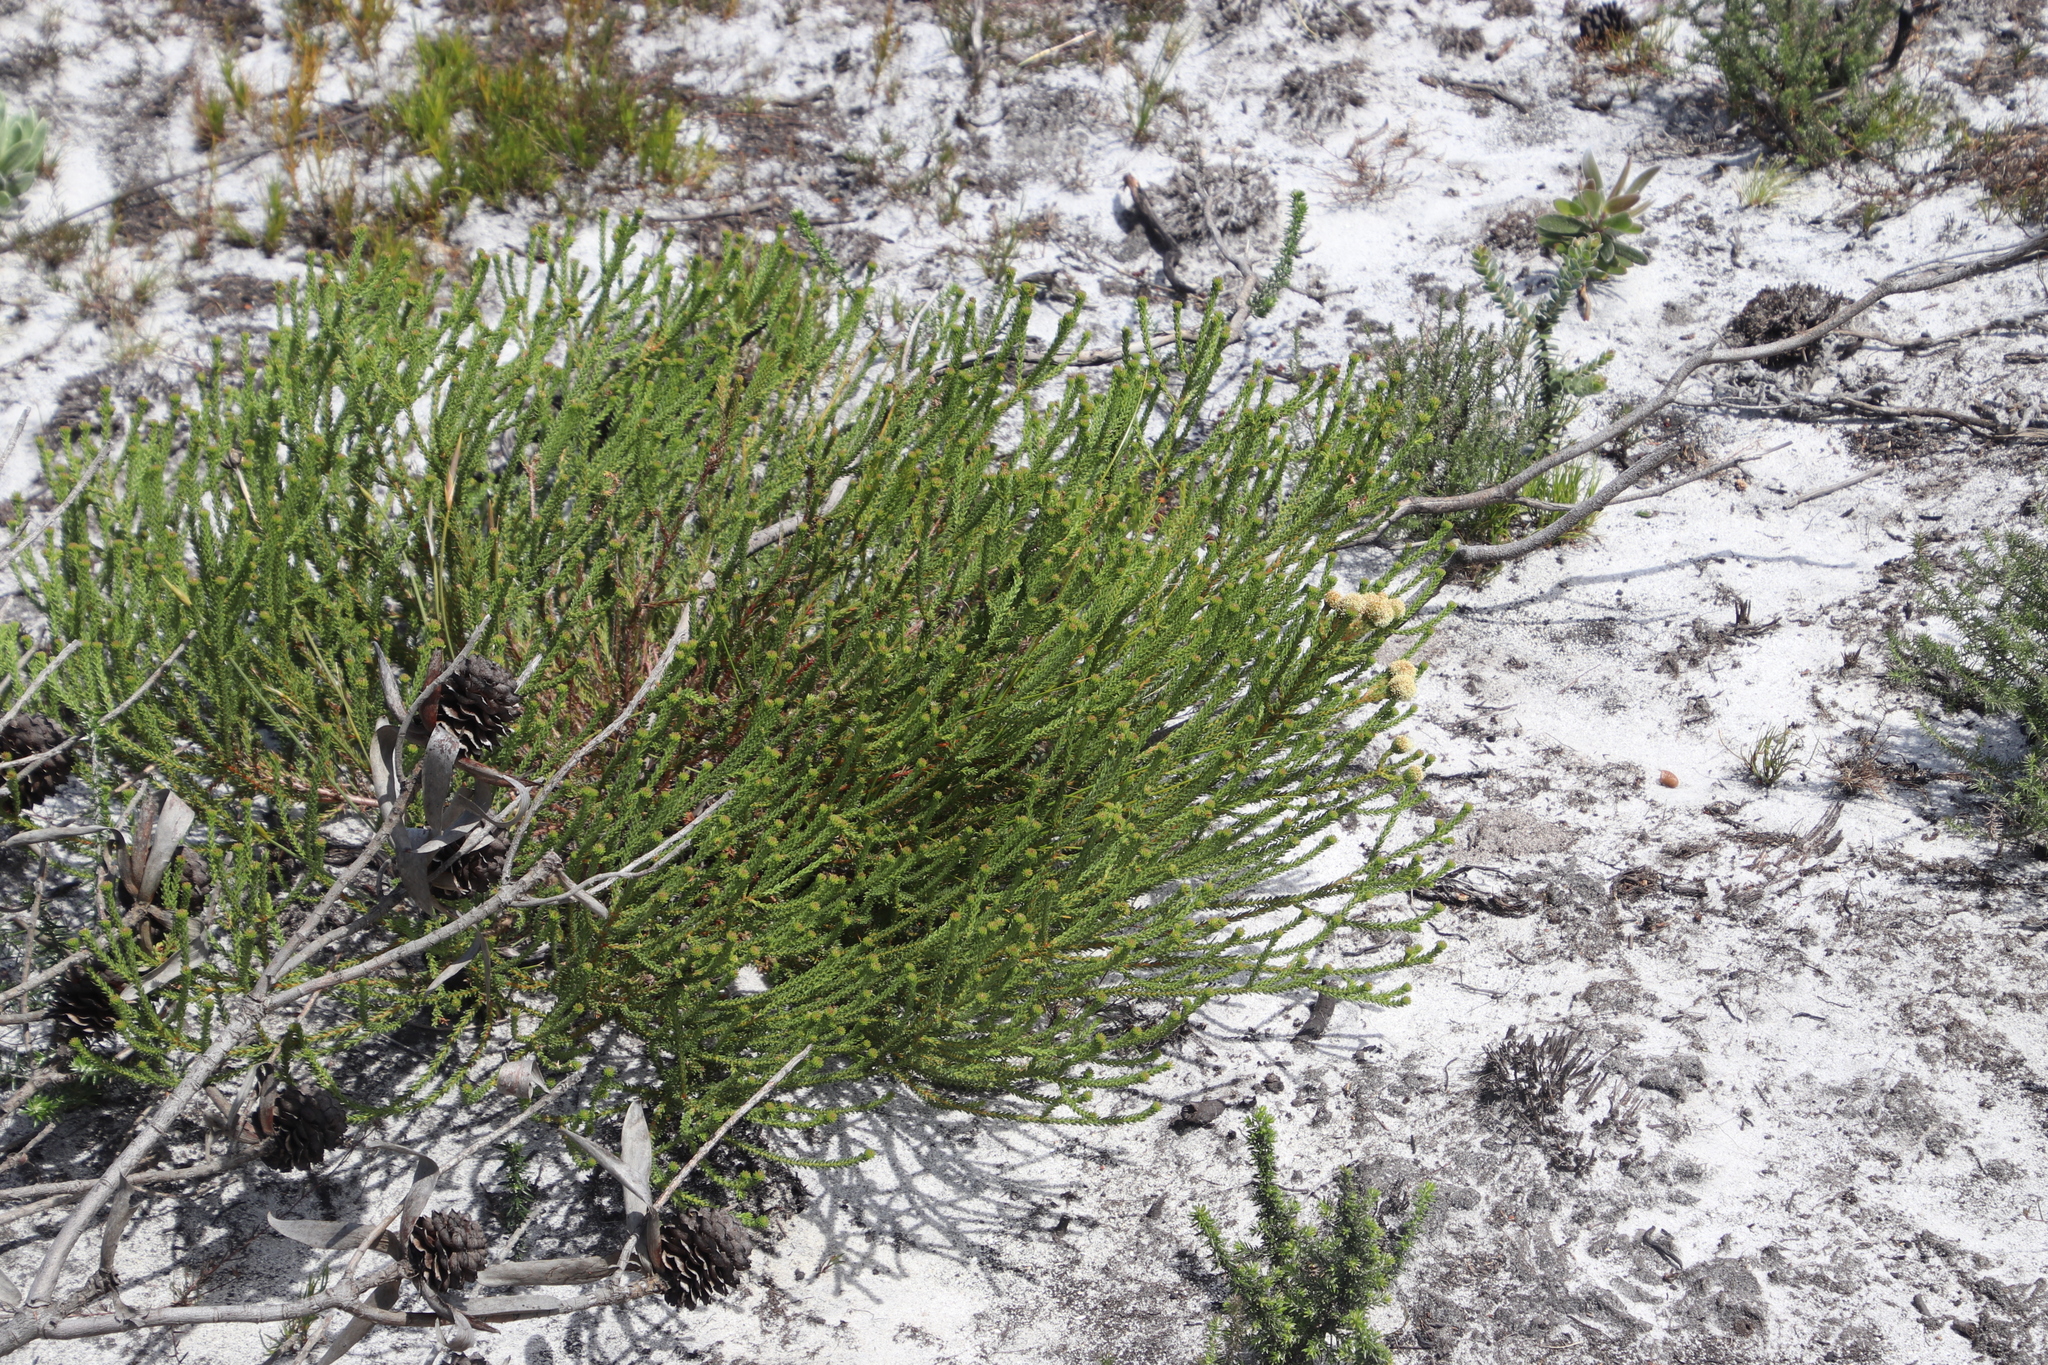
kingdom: Plantae
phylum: Tracheophyta
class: Magnoliopsida
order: Bruniales
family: Bruniaceae
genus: Berzelia
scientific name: Berzelia abrotanoides
